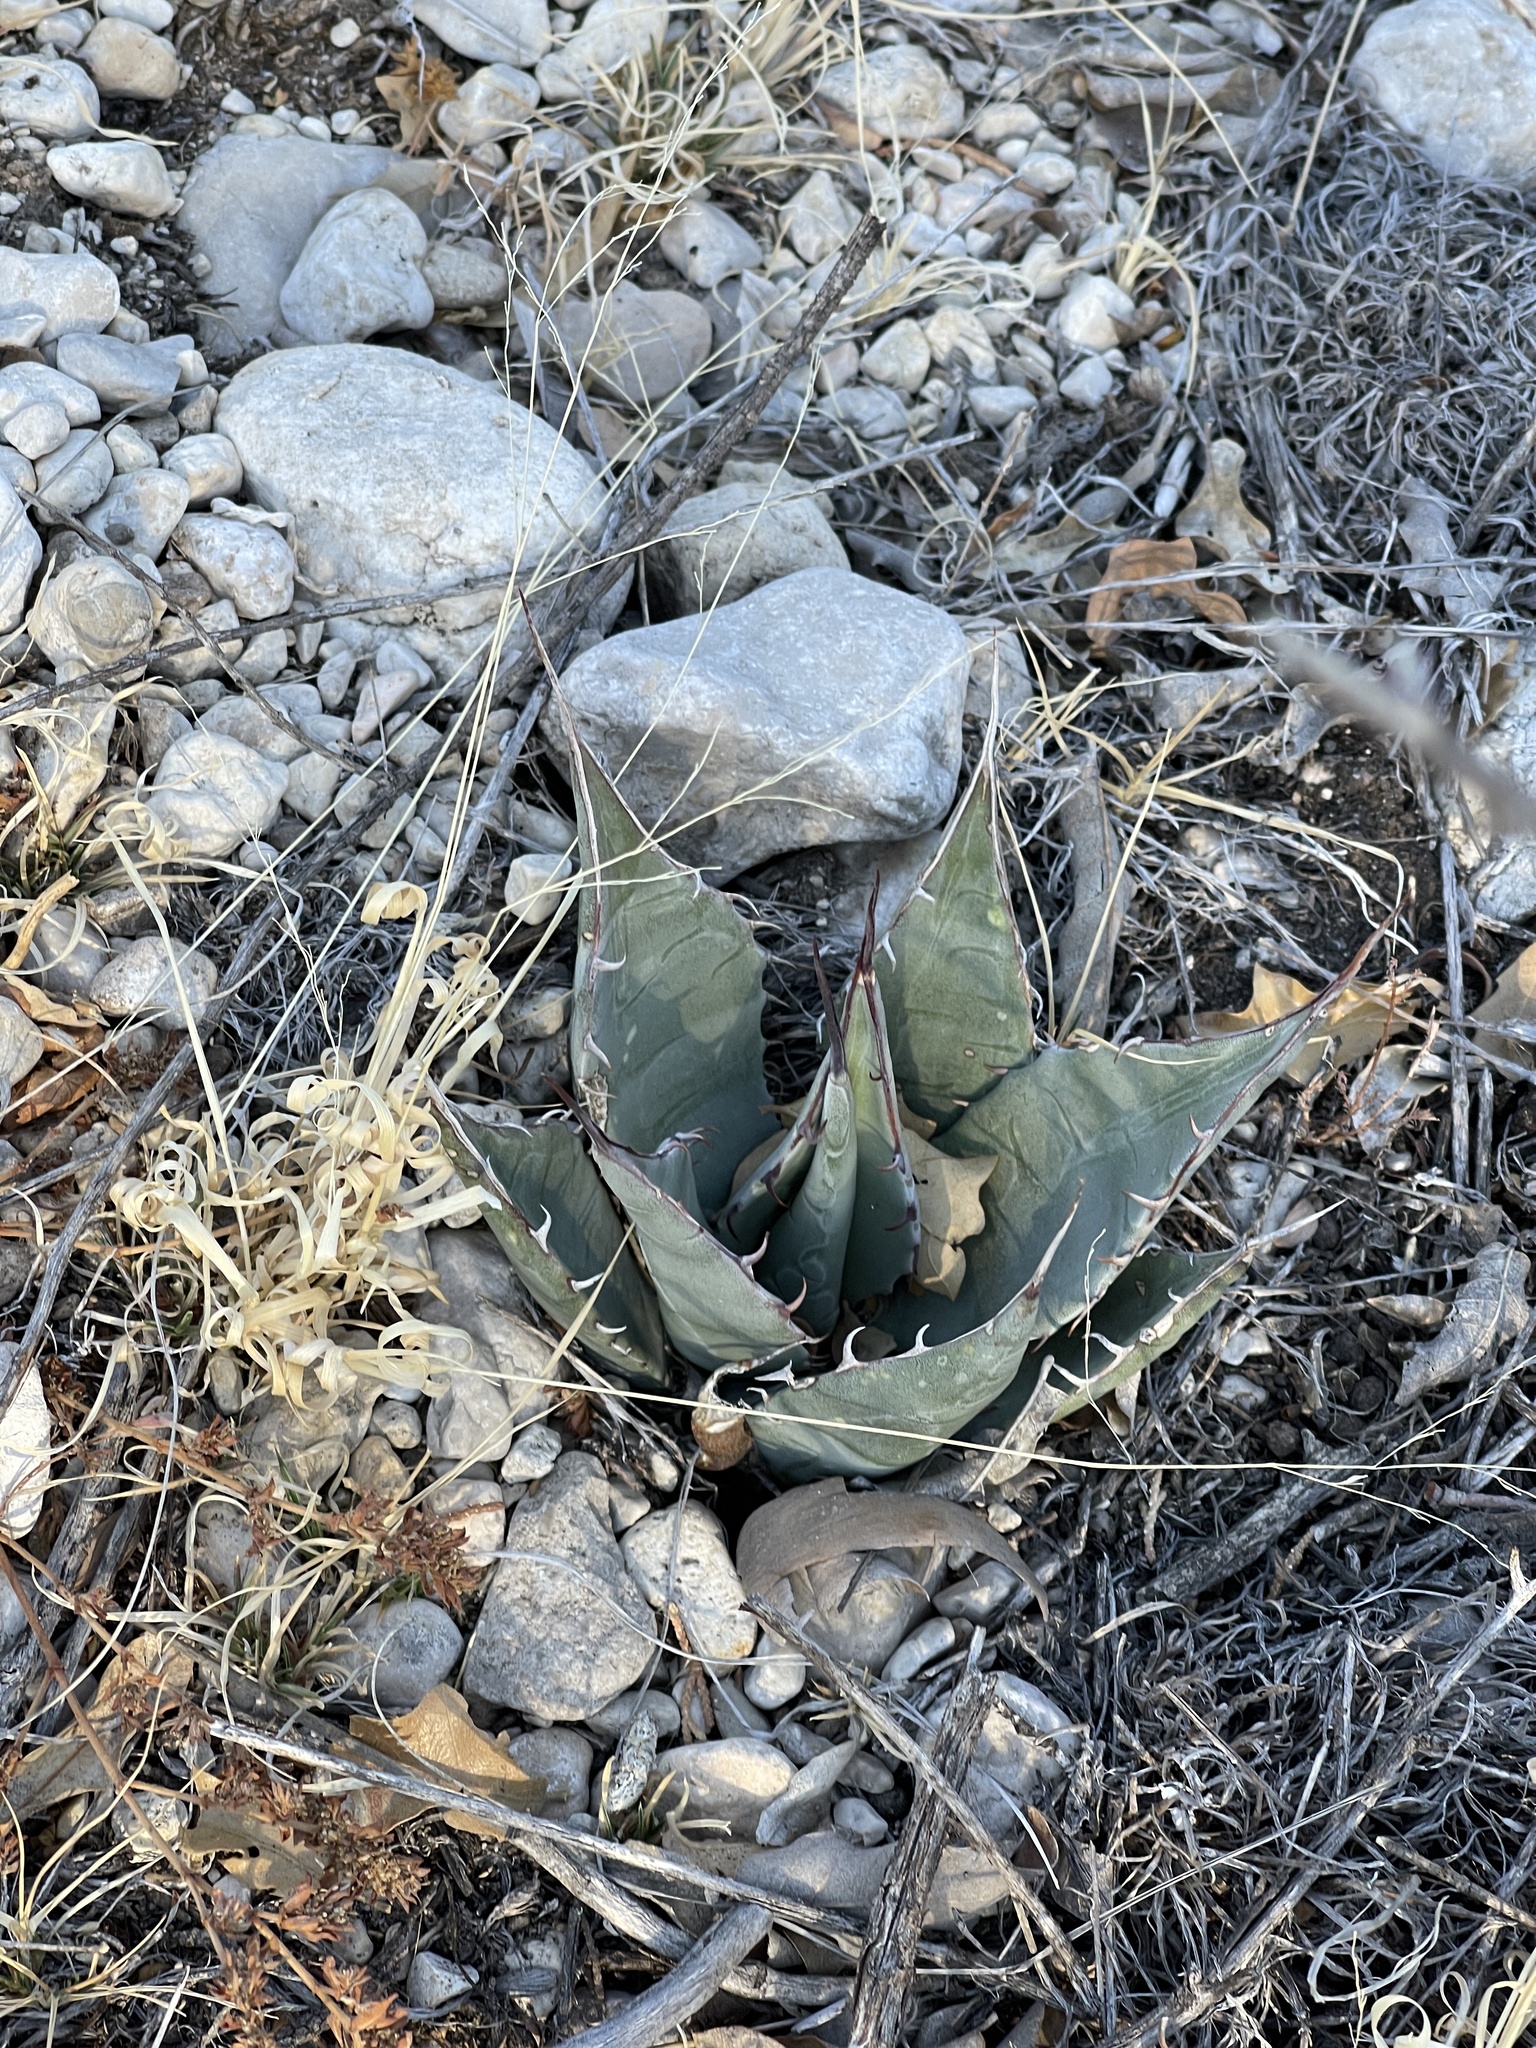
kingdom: Plantae
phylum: Tracheophyta
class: Liliopsida
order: Asparagales
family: Asparagaceae
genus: Agave
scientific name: Agave parryi
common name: Parry's agave
